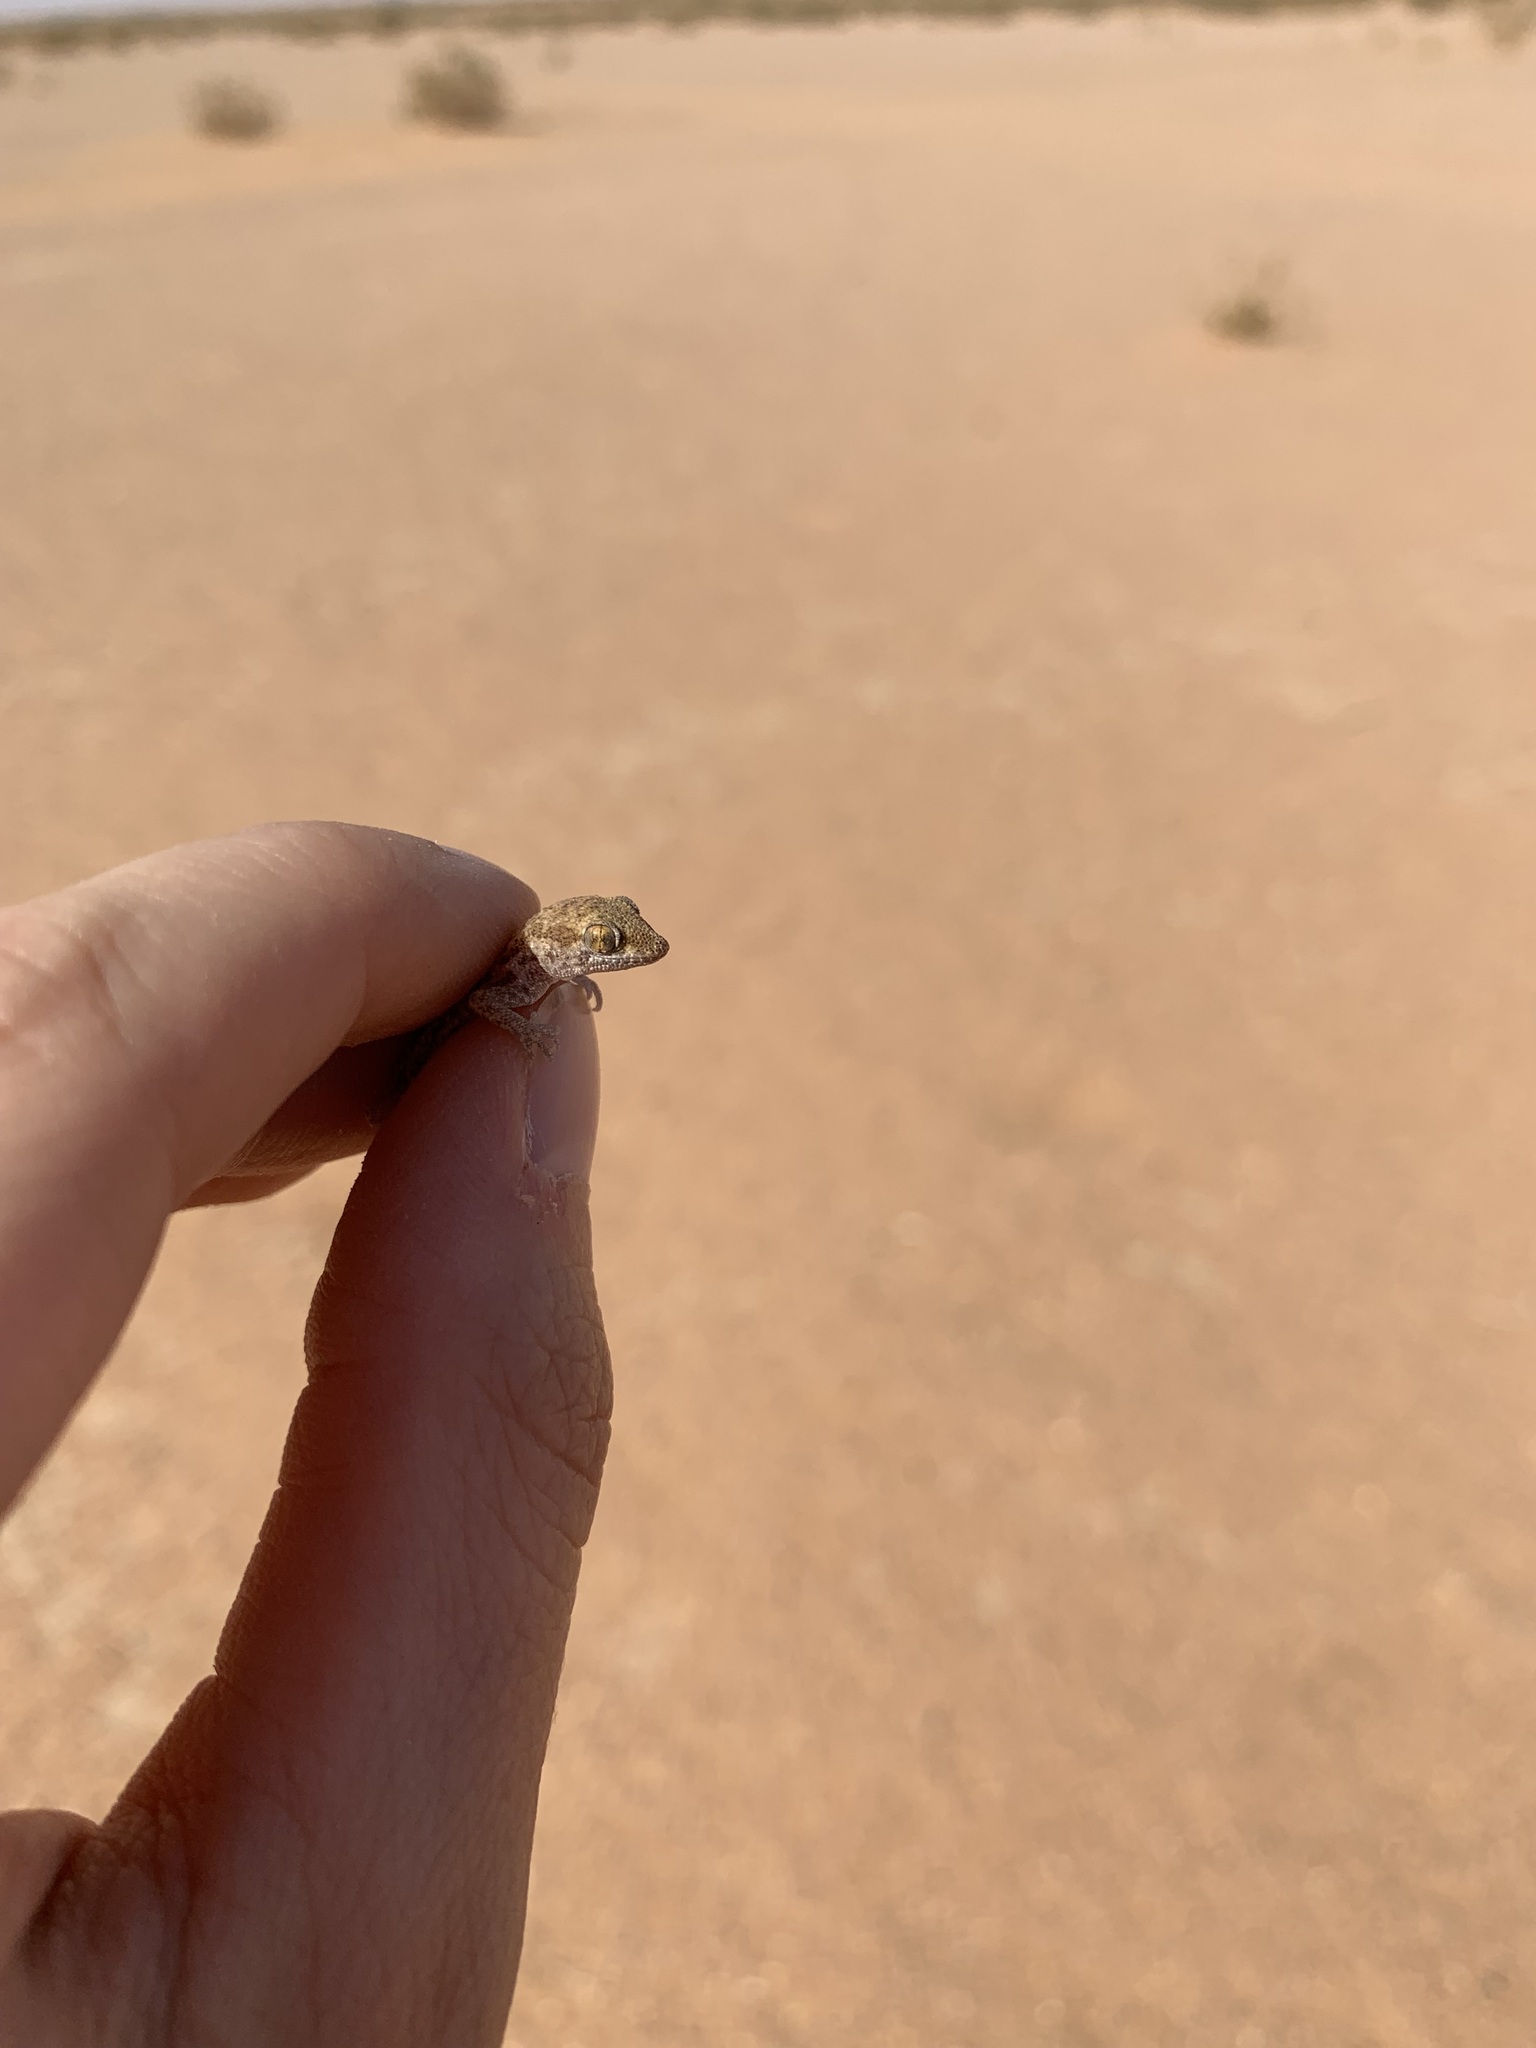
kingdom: Animalia
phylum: Chordata
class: Squamata
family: Gekkonidae
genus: Bunopus
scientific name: Bunopus tuberculatus
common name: Southern tuberculated gecko
